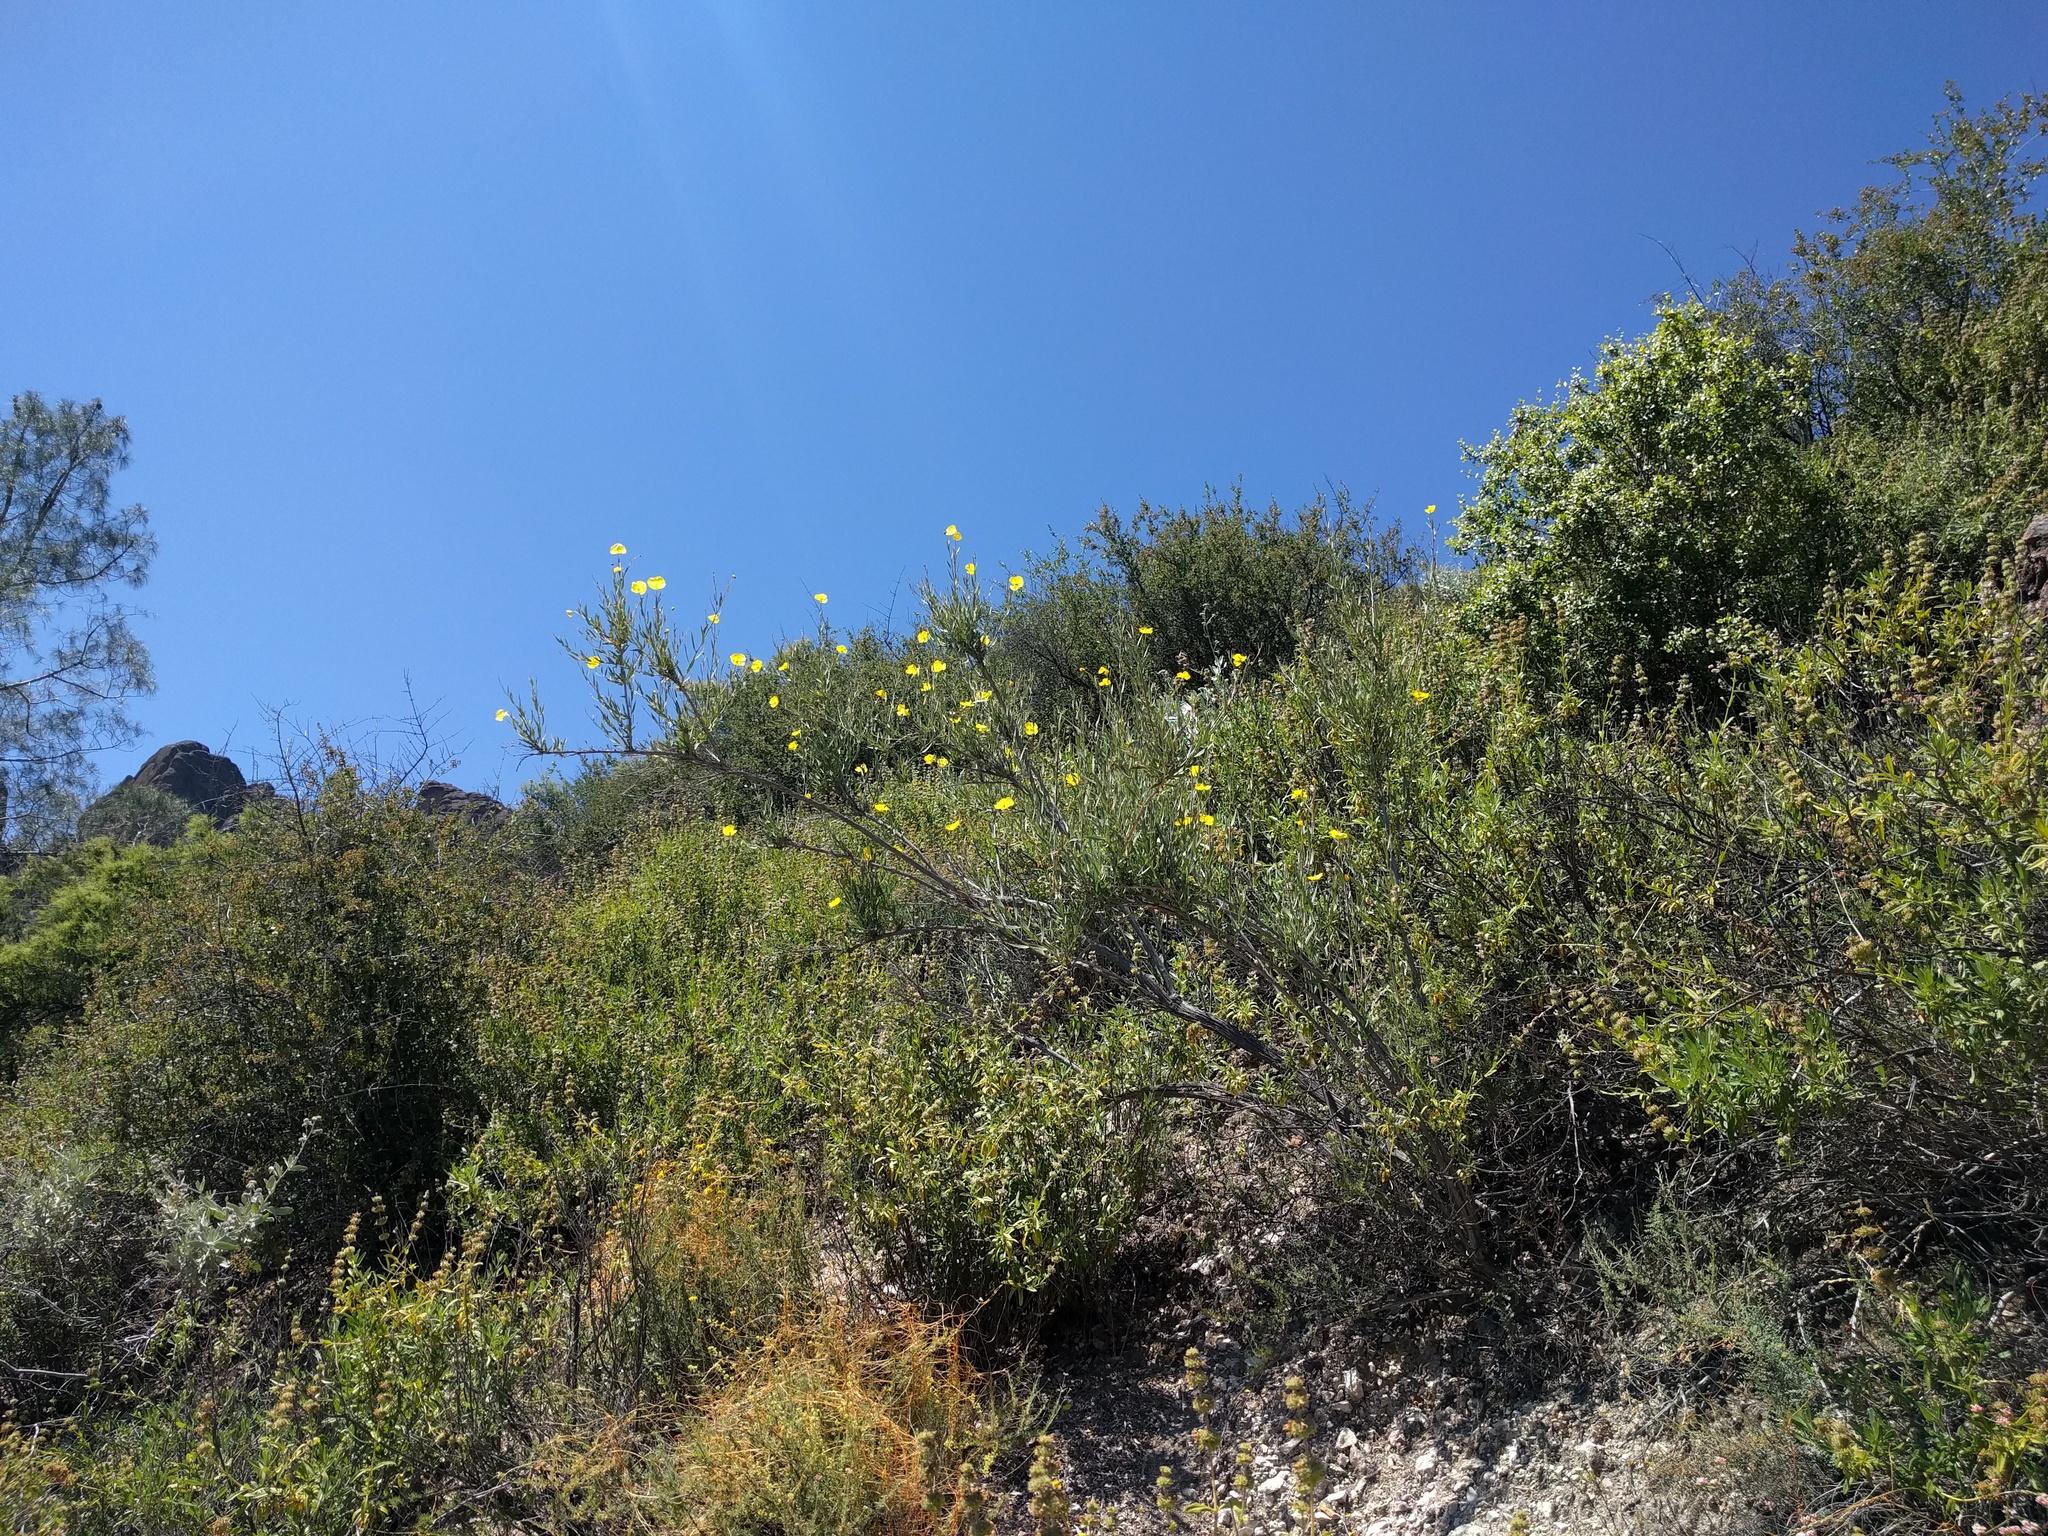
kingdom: Plantae
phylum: Tracheophyta
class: Magnoliopsida
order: Ranunculales
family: Papaveraceae
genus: Dendromecon
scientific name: Dendromecon rigida
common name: Tree poppy
